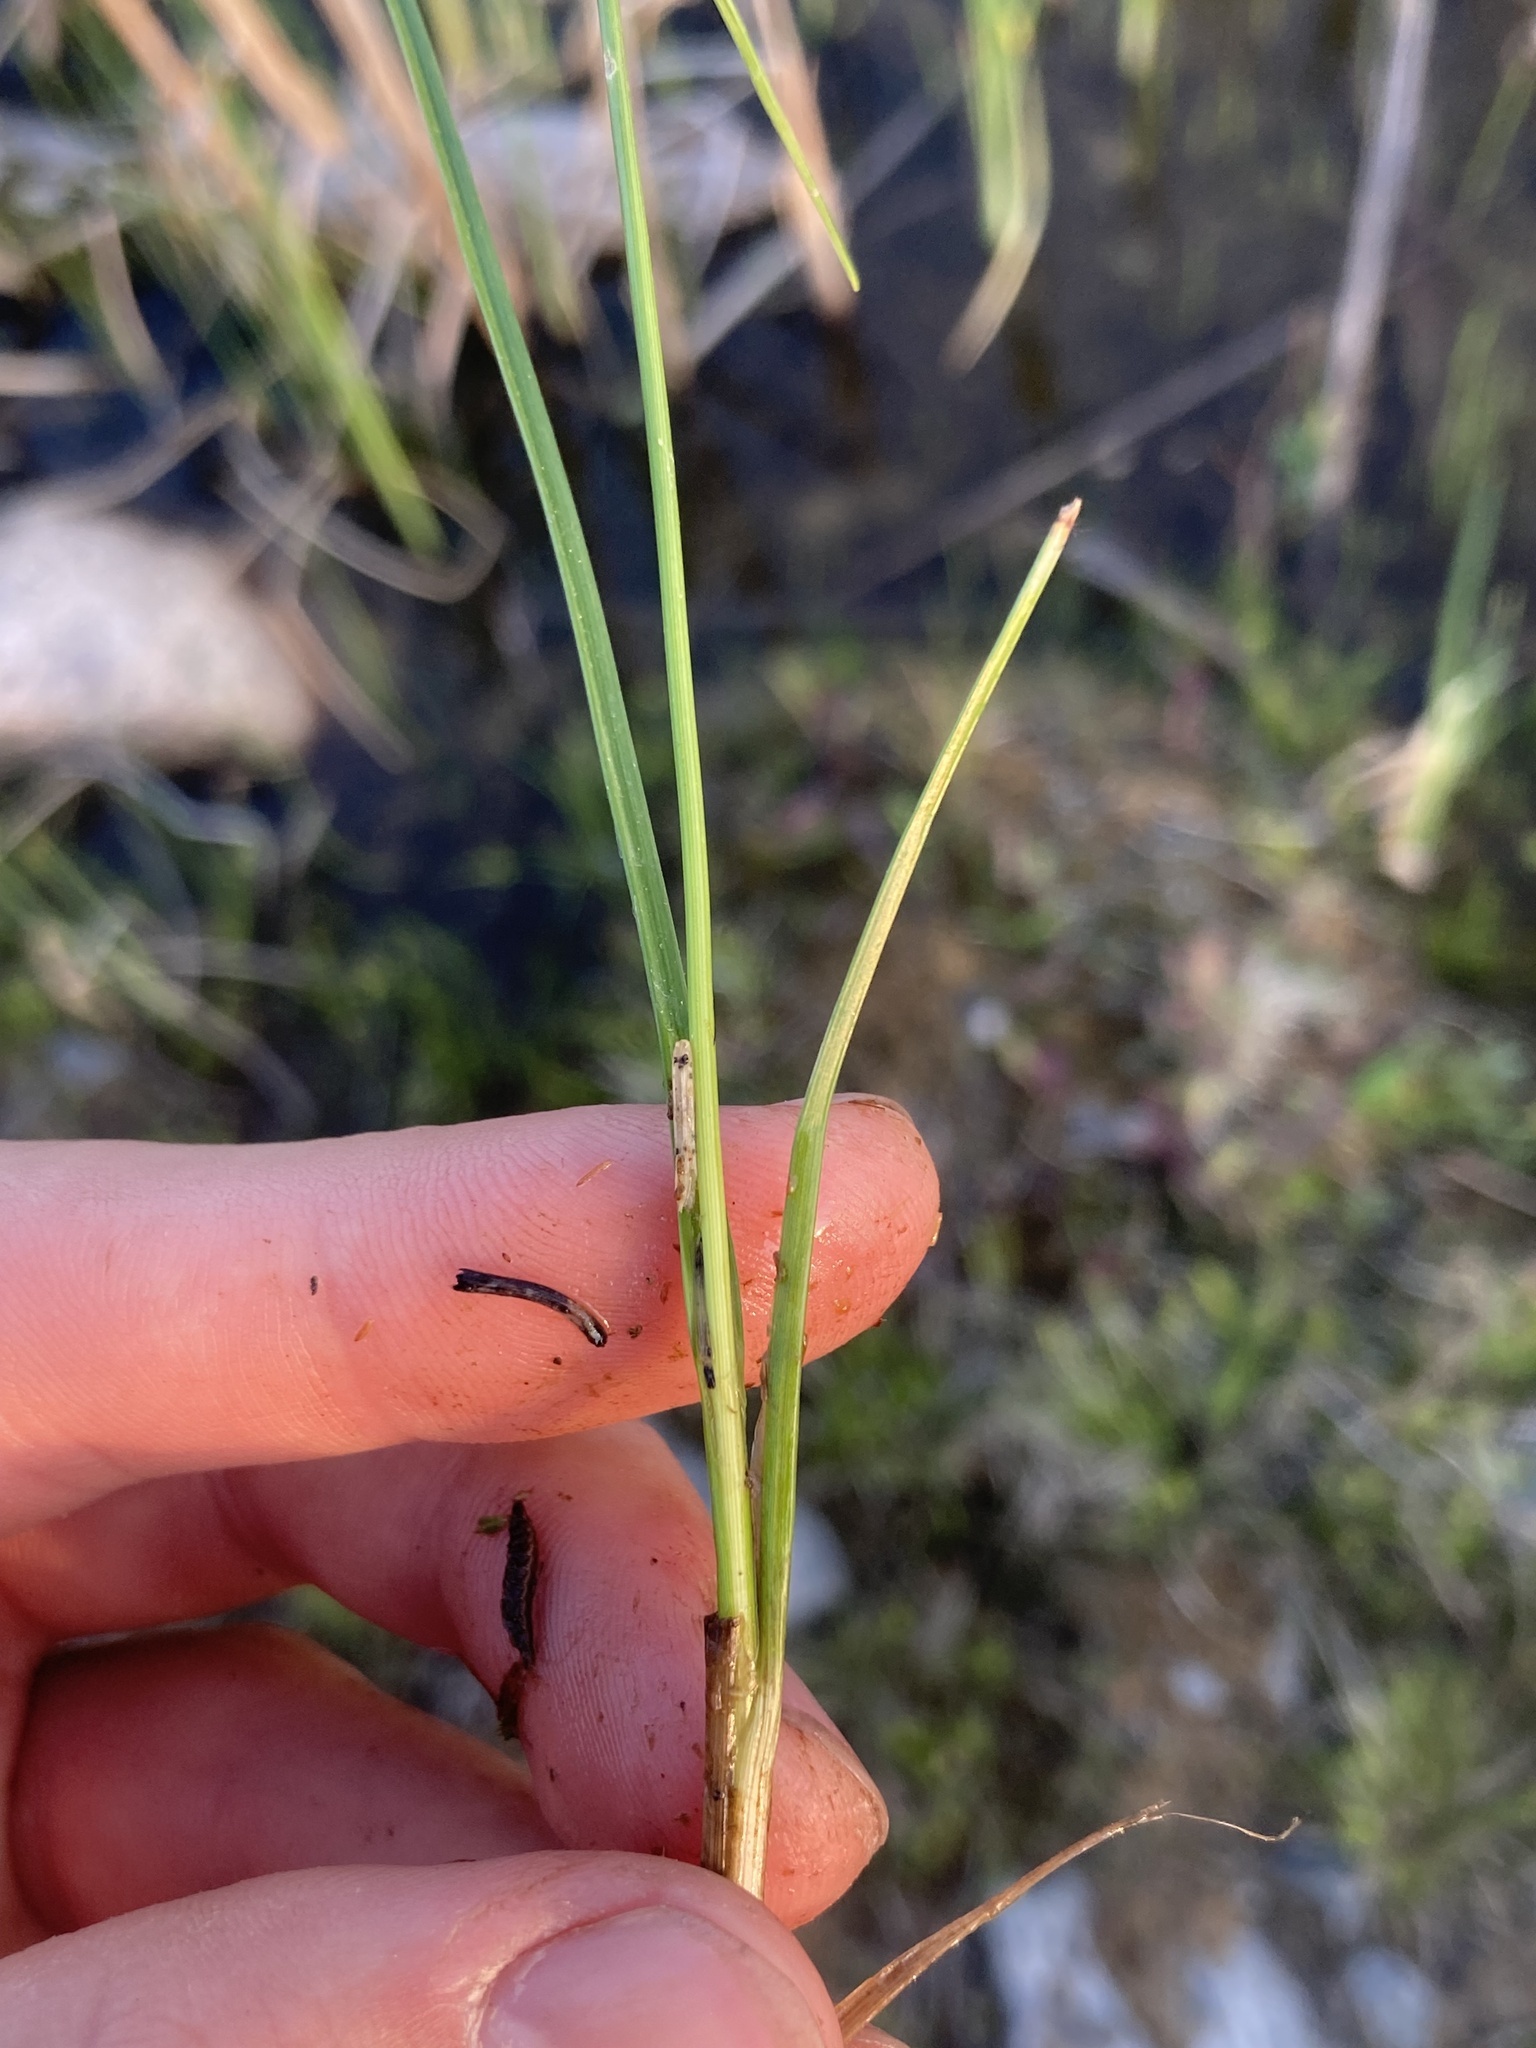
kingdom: Plantae
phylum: Tracheophyta
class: Liliopsida
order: Poales
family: Cyperaceae
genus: Carex
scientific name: Carex
